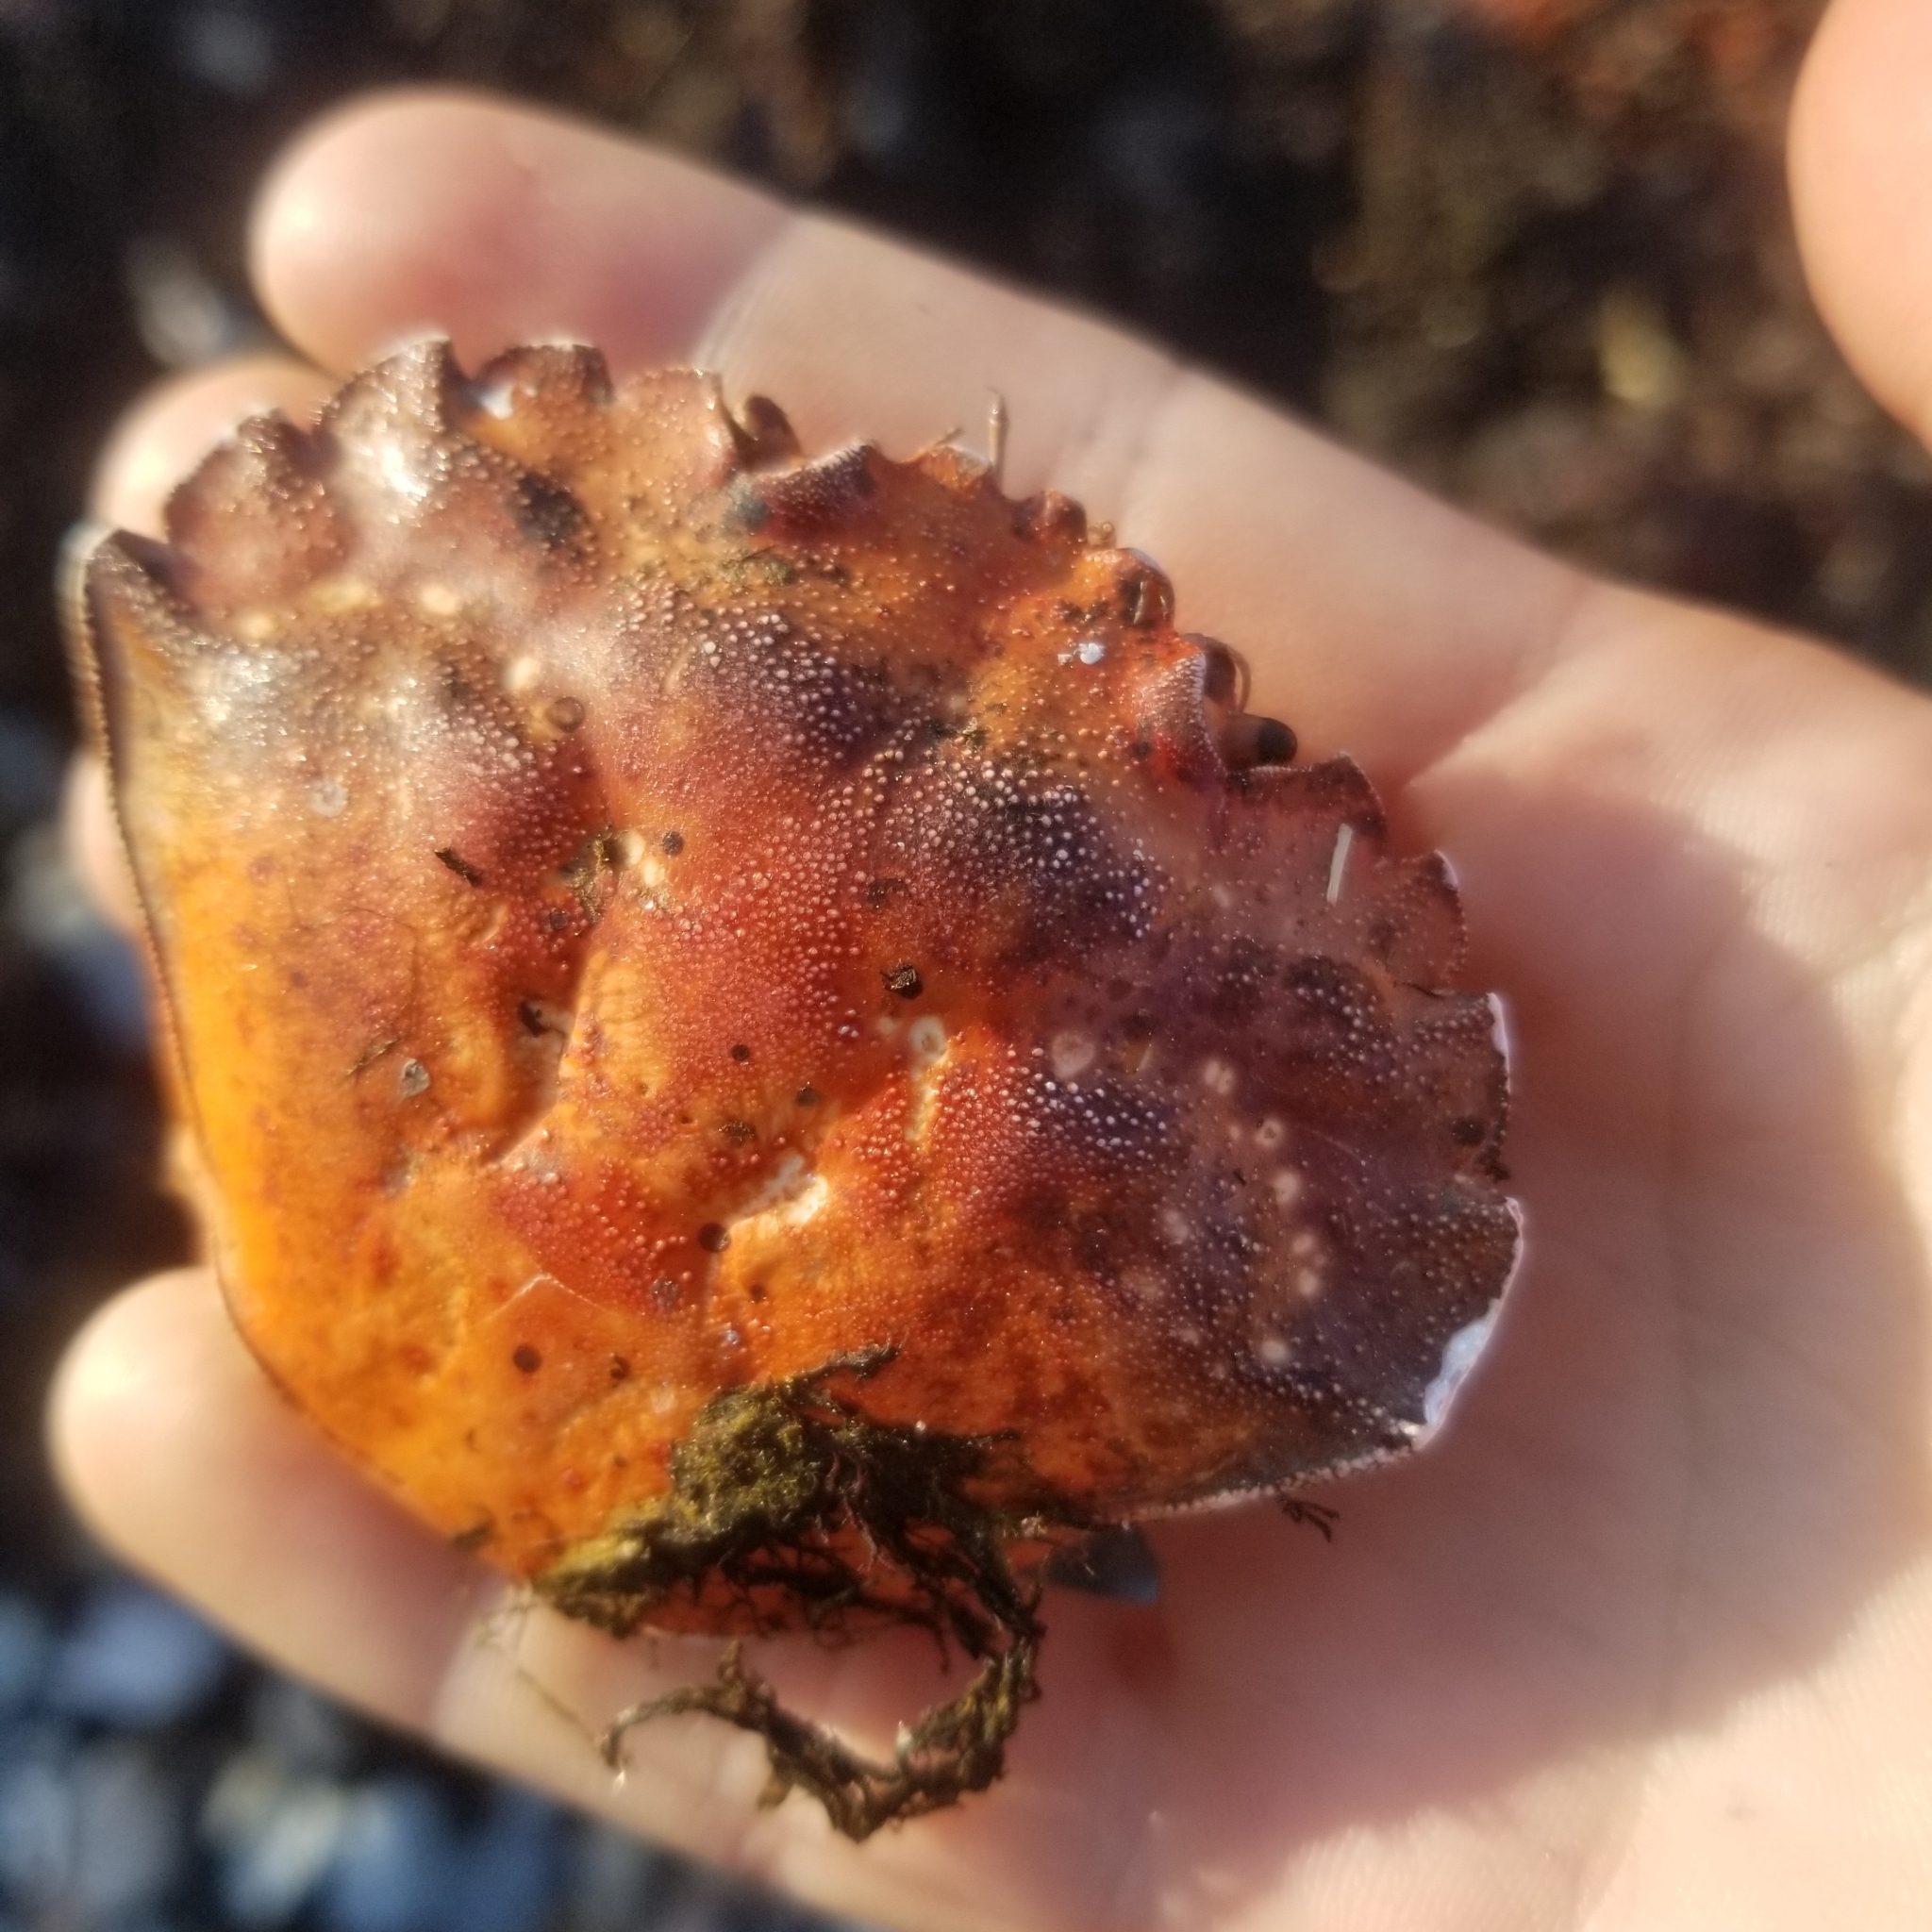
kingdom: Animalia
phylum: Arthropoda
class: Malacostraca
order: Decapoda
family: Carcinidae
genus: Carcinus
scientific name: Carcinus maenas
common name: European green crab
